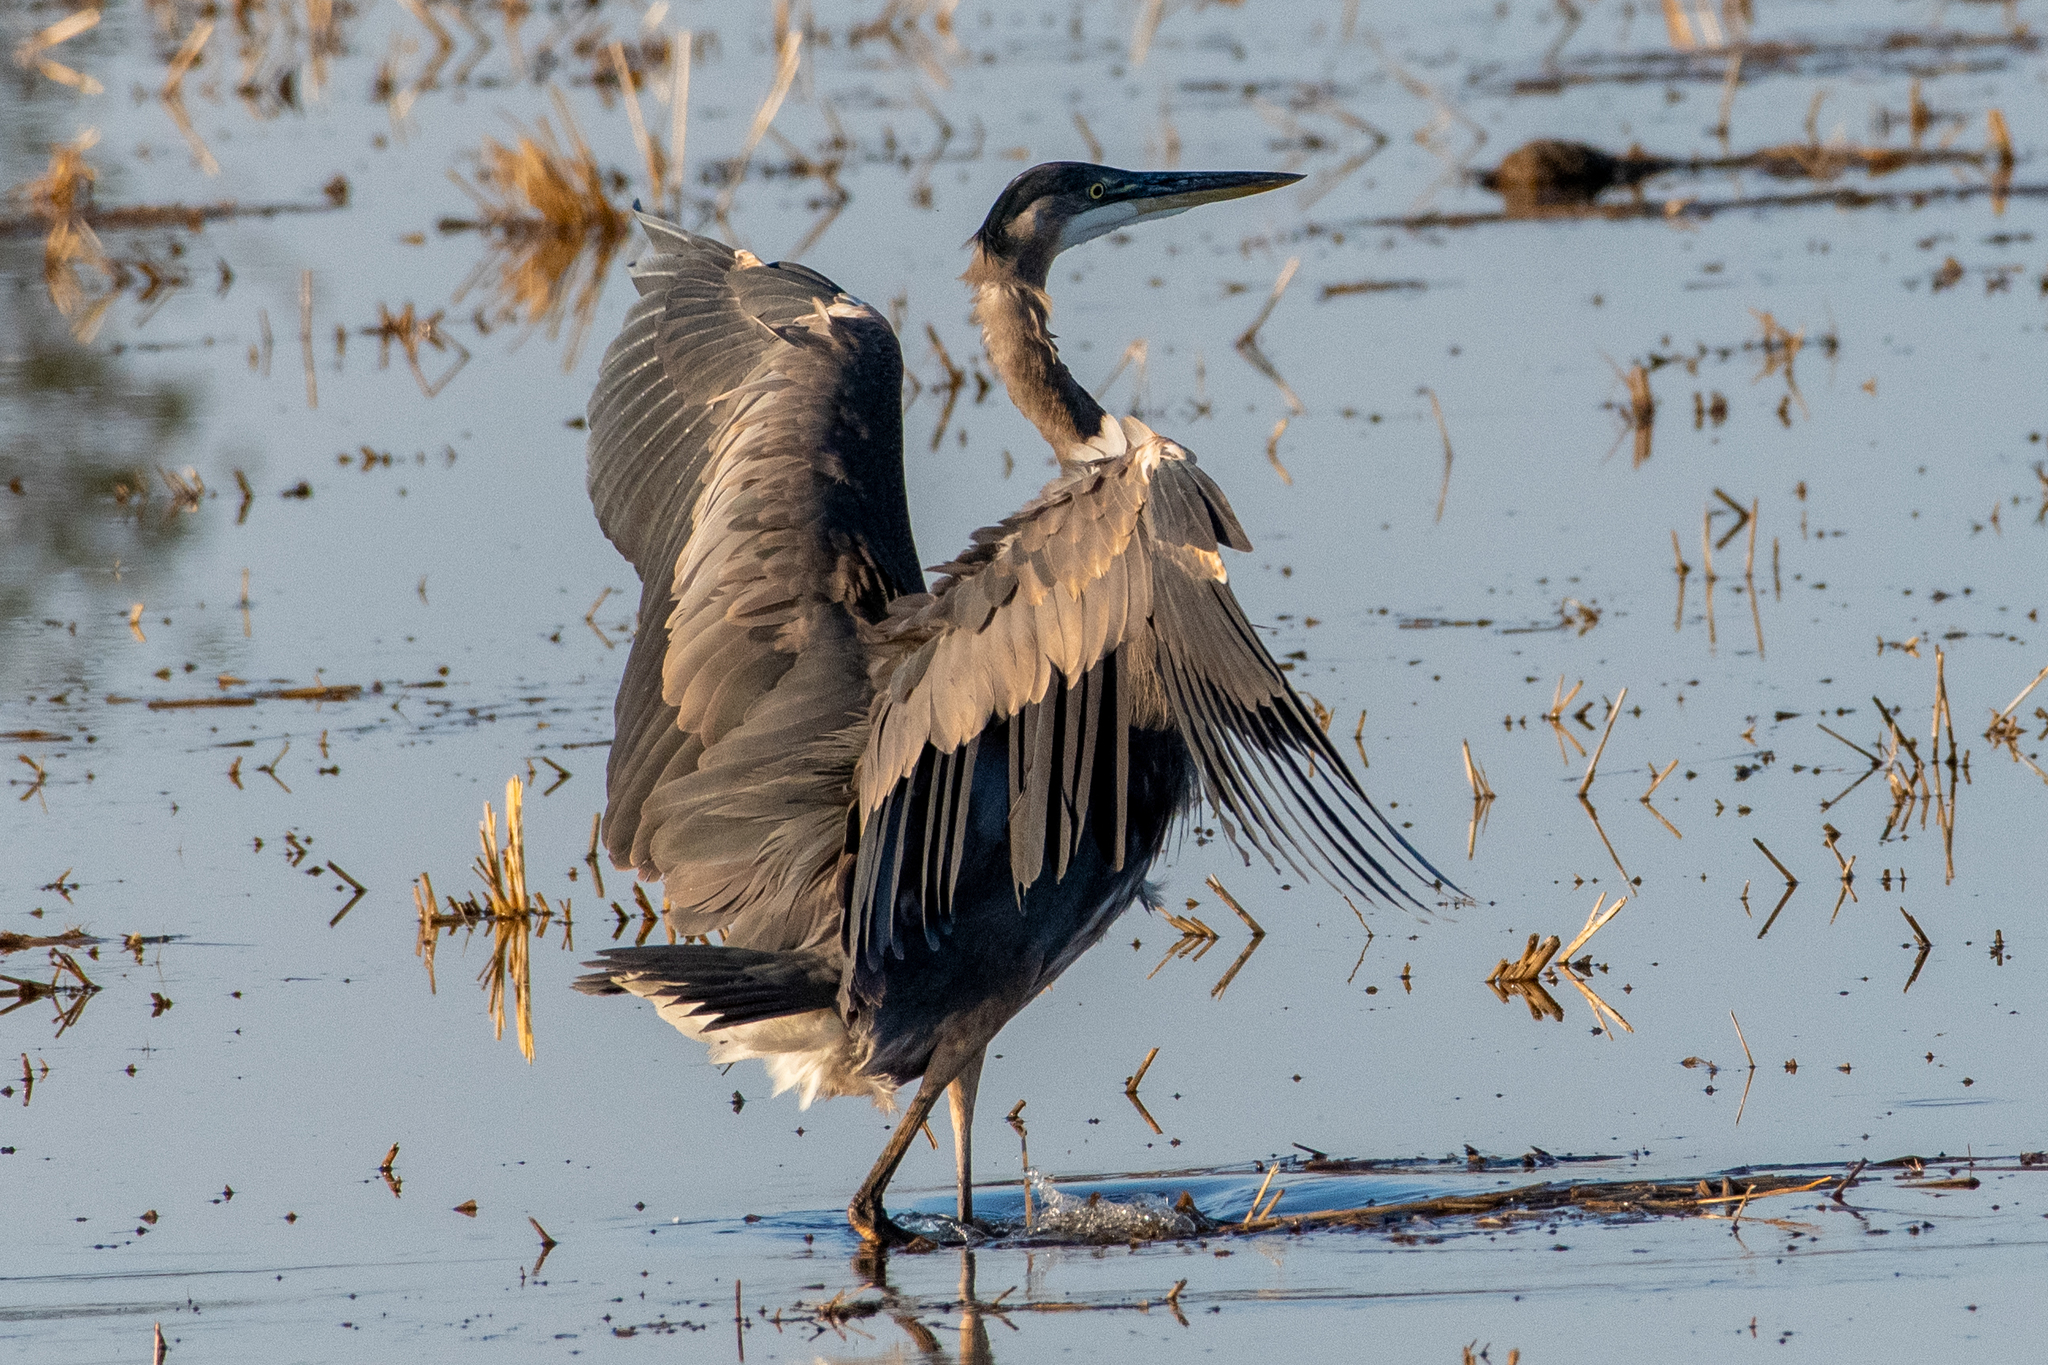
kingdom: Animalia
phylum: Chordata
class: Aves
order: Pelecaniformes
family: Ardeidae
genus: Ardea
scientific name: Ardea herodias
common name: Great blue heron
